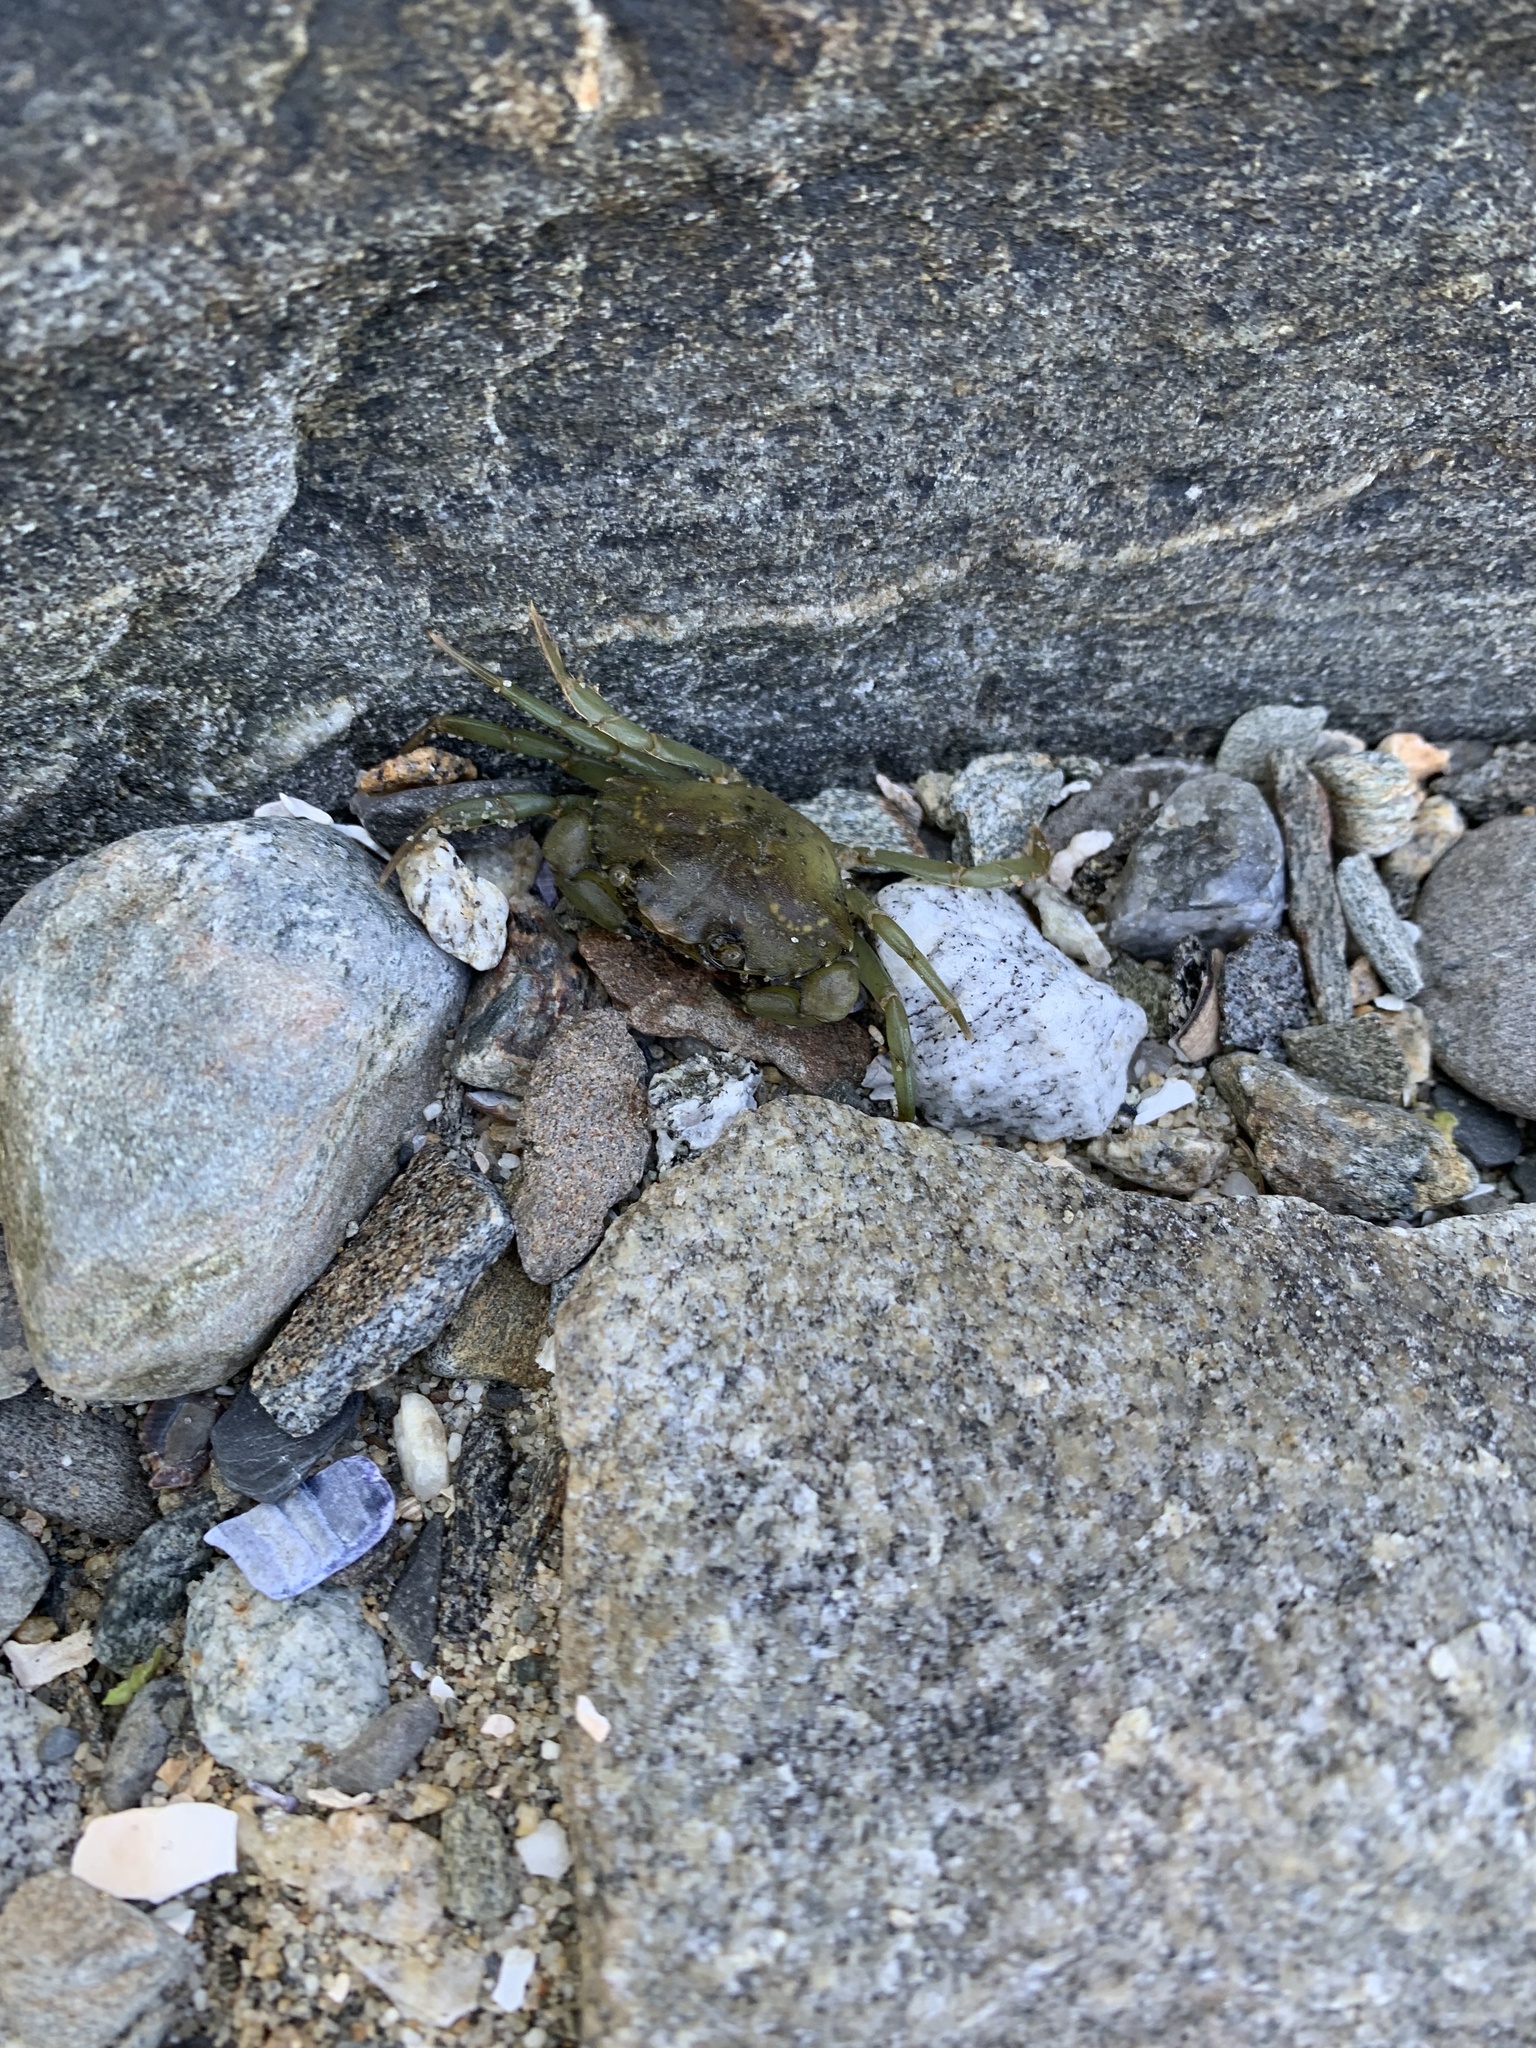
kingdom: Animalia
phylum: Arthropoda
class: Malacostraca
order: Decapoda
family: Carcinidae
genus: Carcinus
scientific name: Carcinus maenas
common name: European green crab
